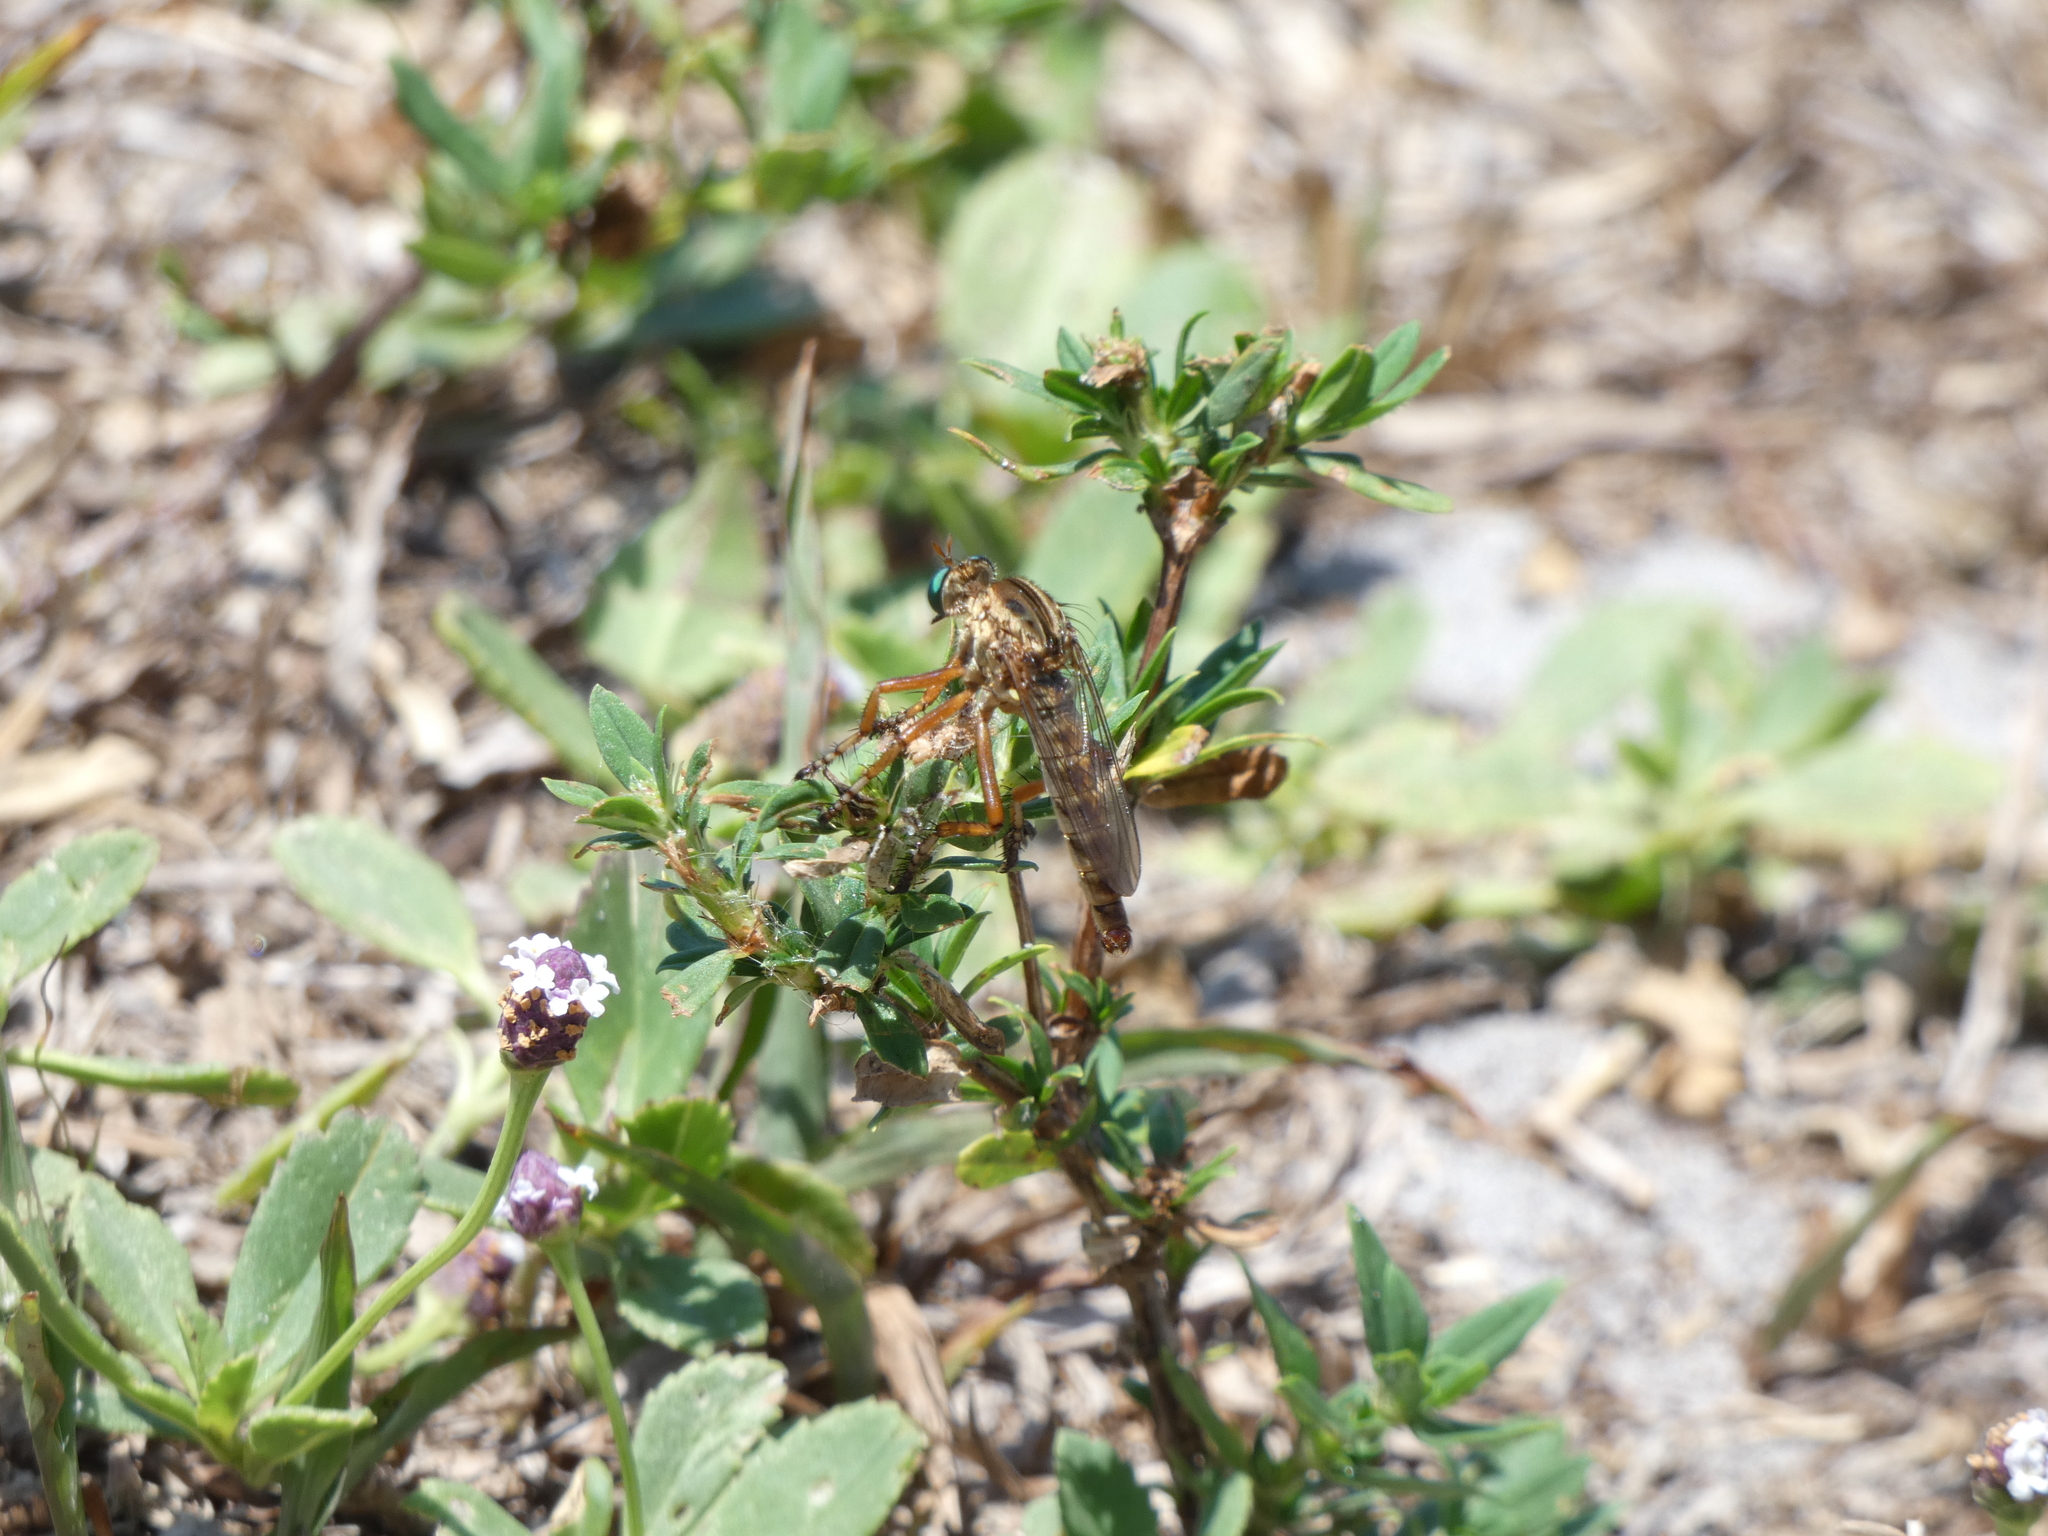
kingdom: Animalia
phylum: Arthropoda
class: Insecta
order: Diptera
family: Asilidae
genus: Diogmites
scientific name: Diogmites salutans
